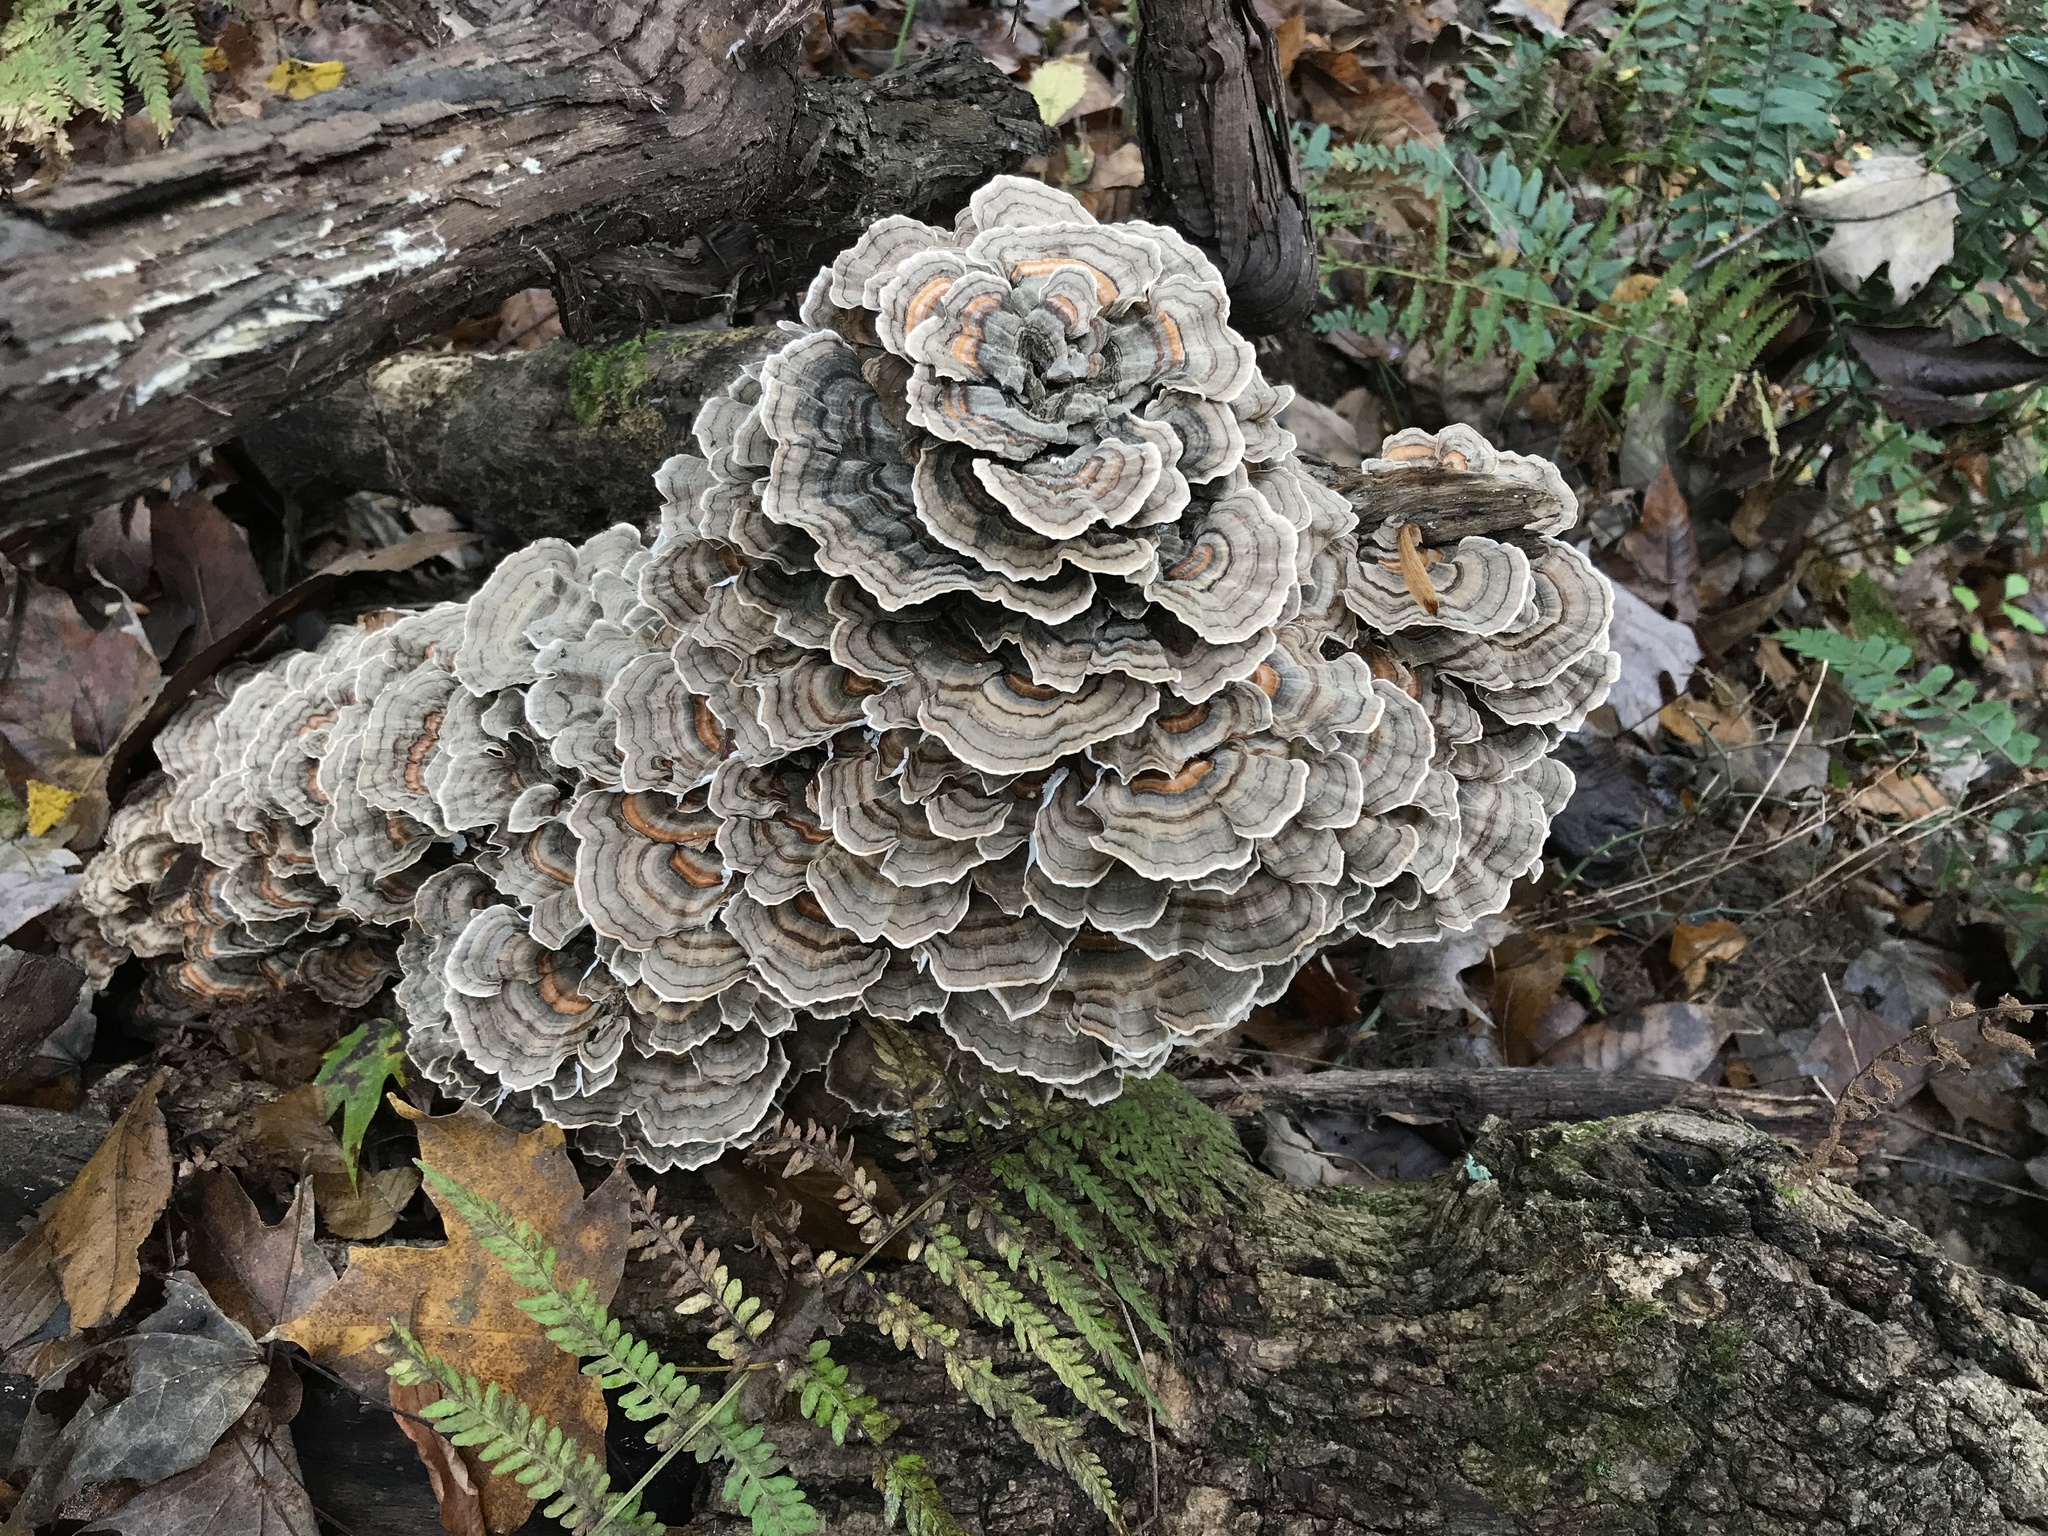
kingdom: Fungi
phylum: Basidiomycota
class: Agaricomycetes
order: Polyporales
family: Polyporaceae
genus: Trametes
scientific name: Trametes versicolor
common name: Turkeytail
